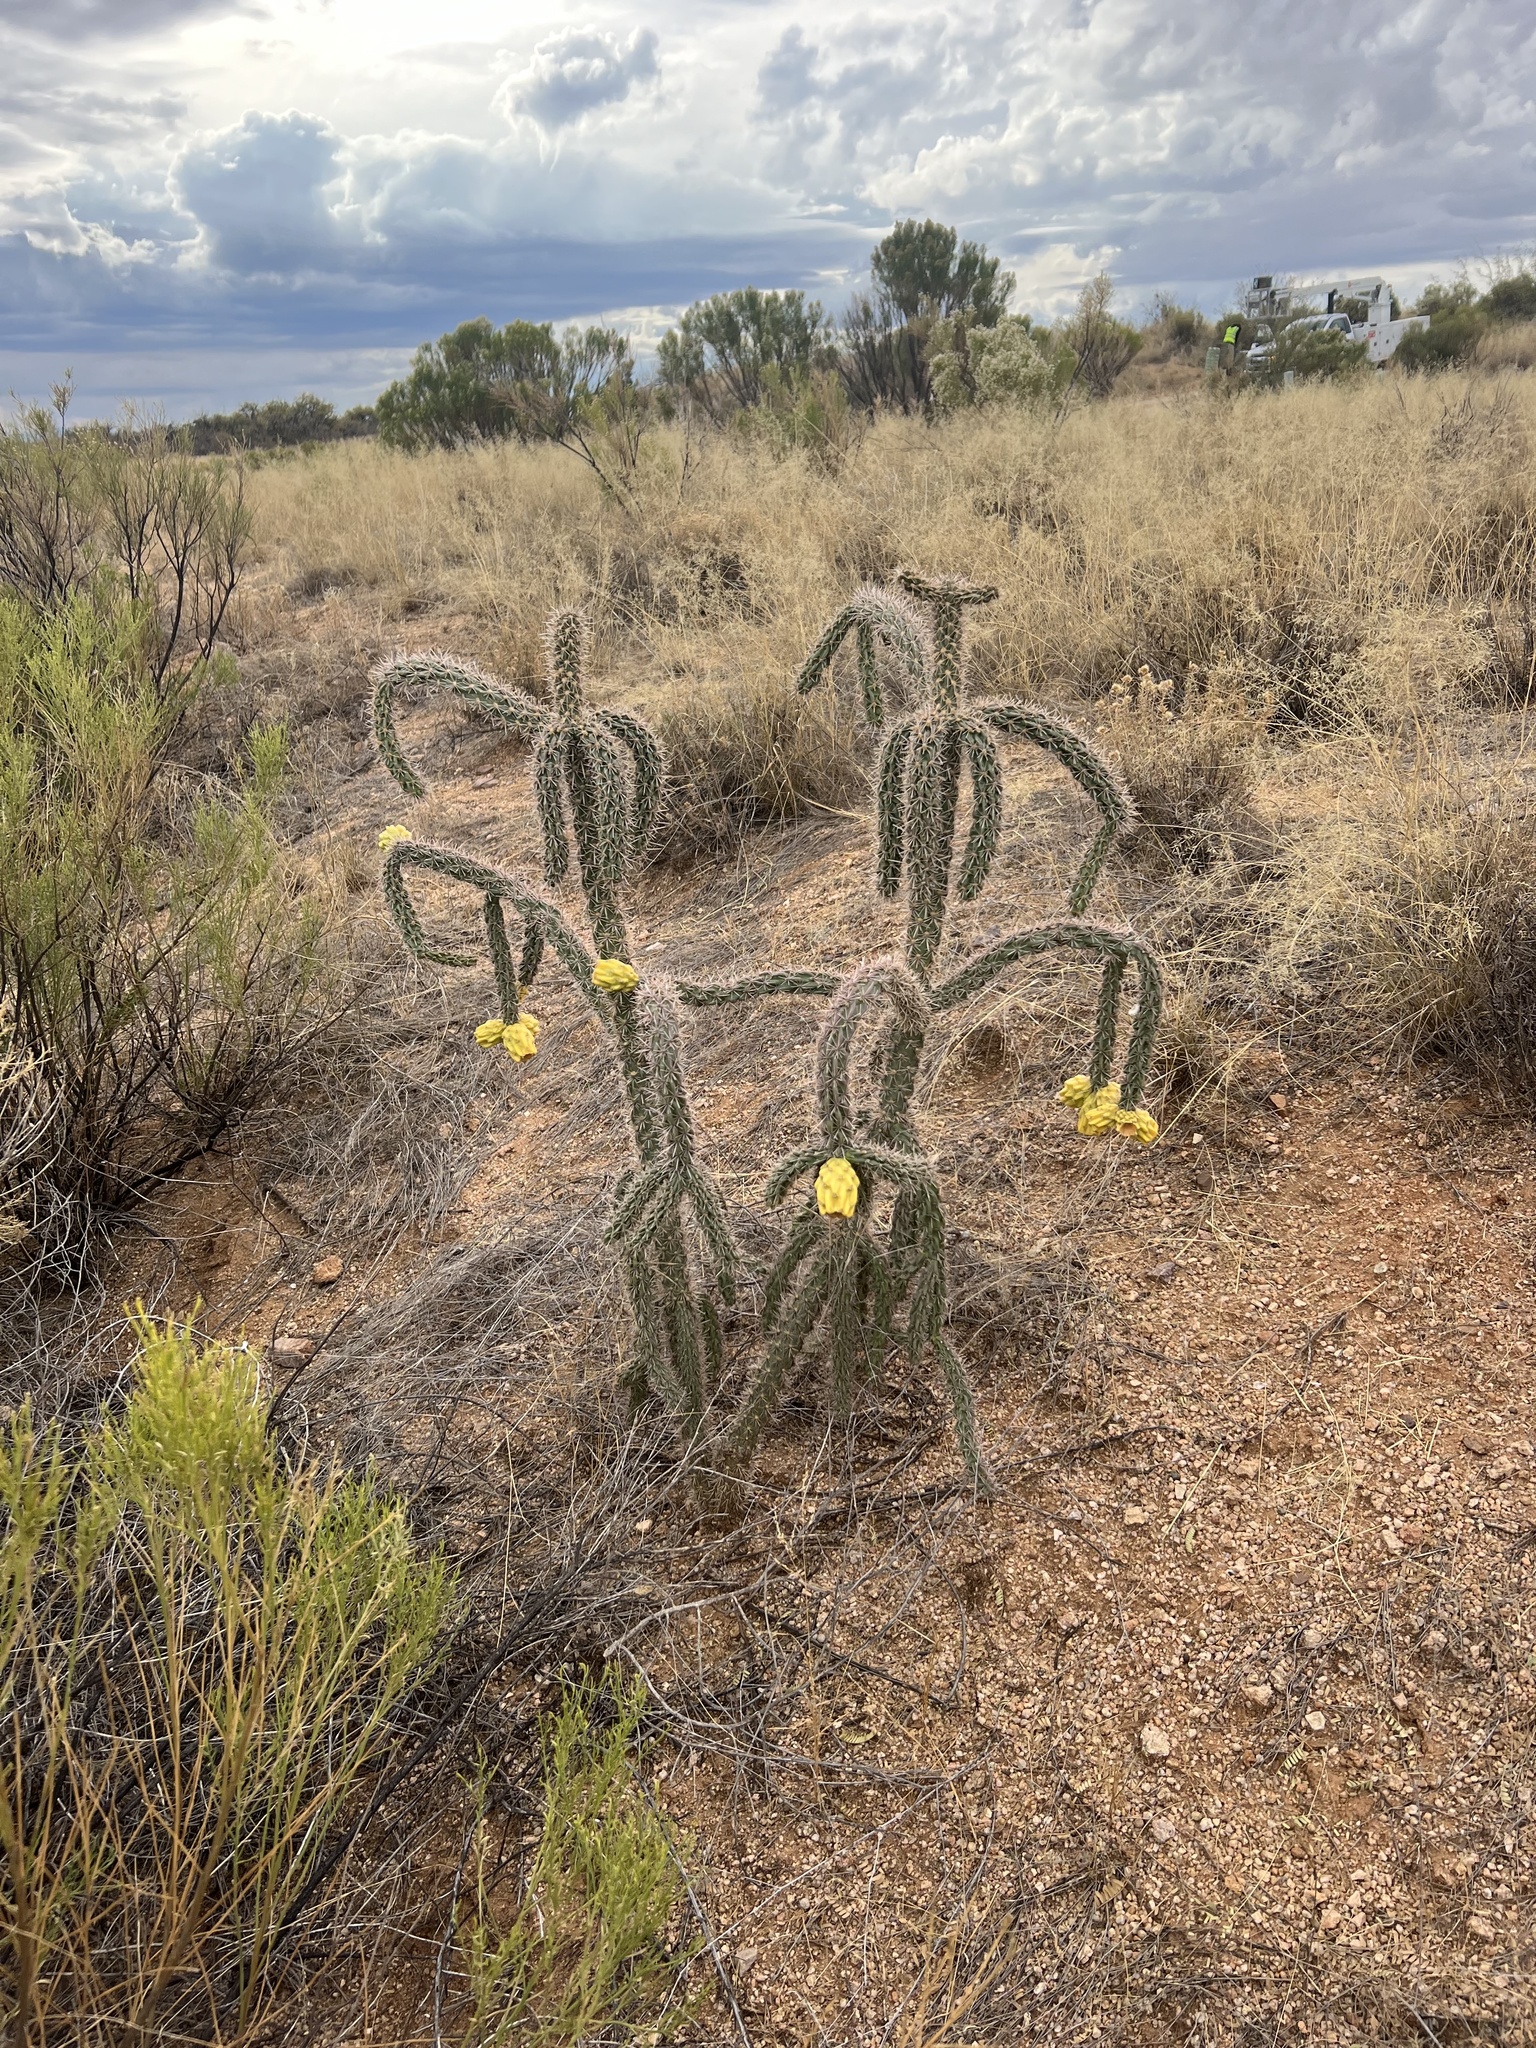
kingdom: Plantae
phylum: Tracheophyta
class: Magnoliopsida
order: Caryophyllales
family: Cactaceae
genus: Cylindropuntia
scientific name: Cylindropuntia imbricata
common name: Candelabrum cactus
